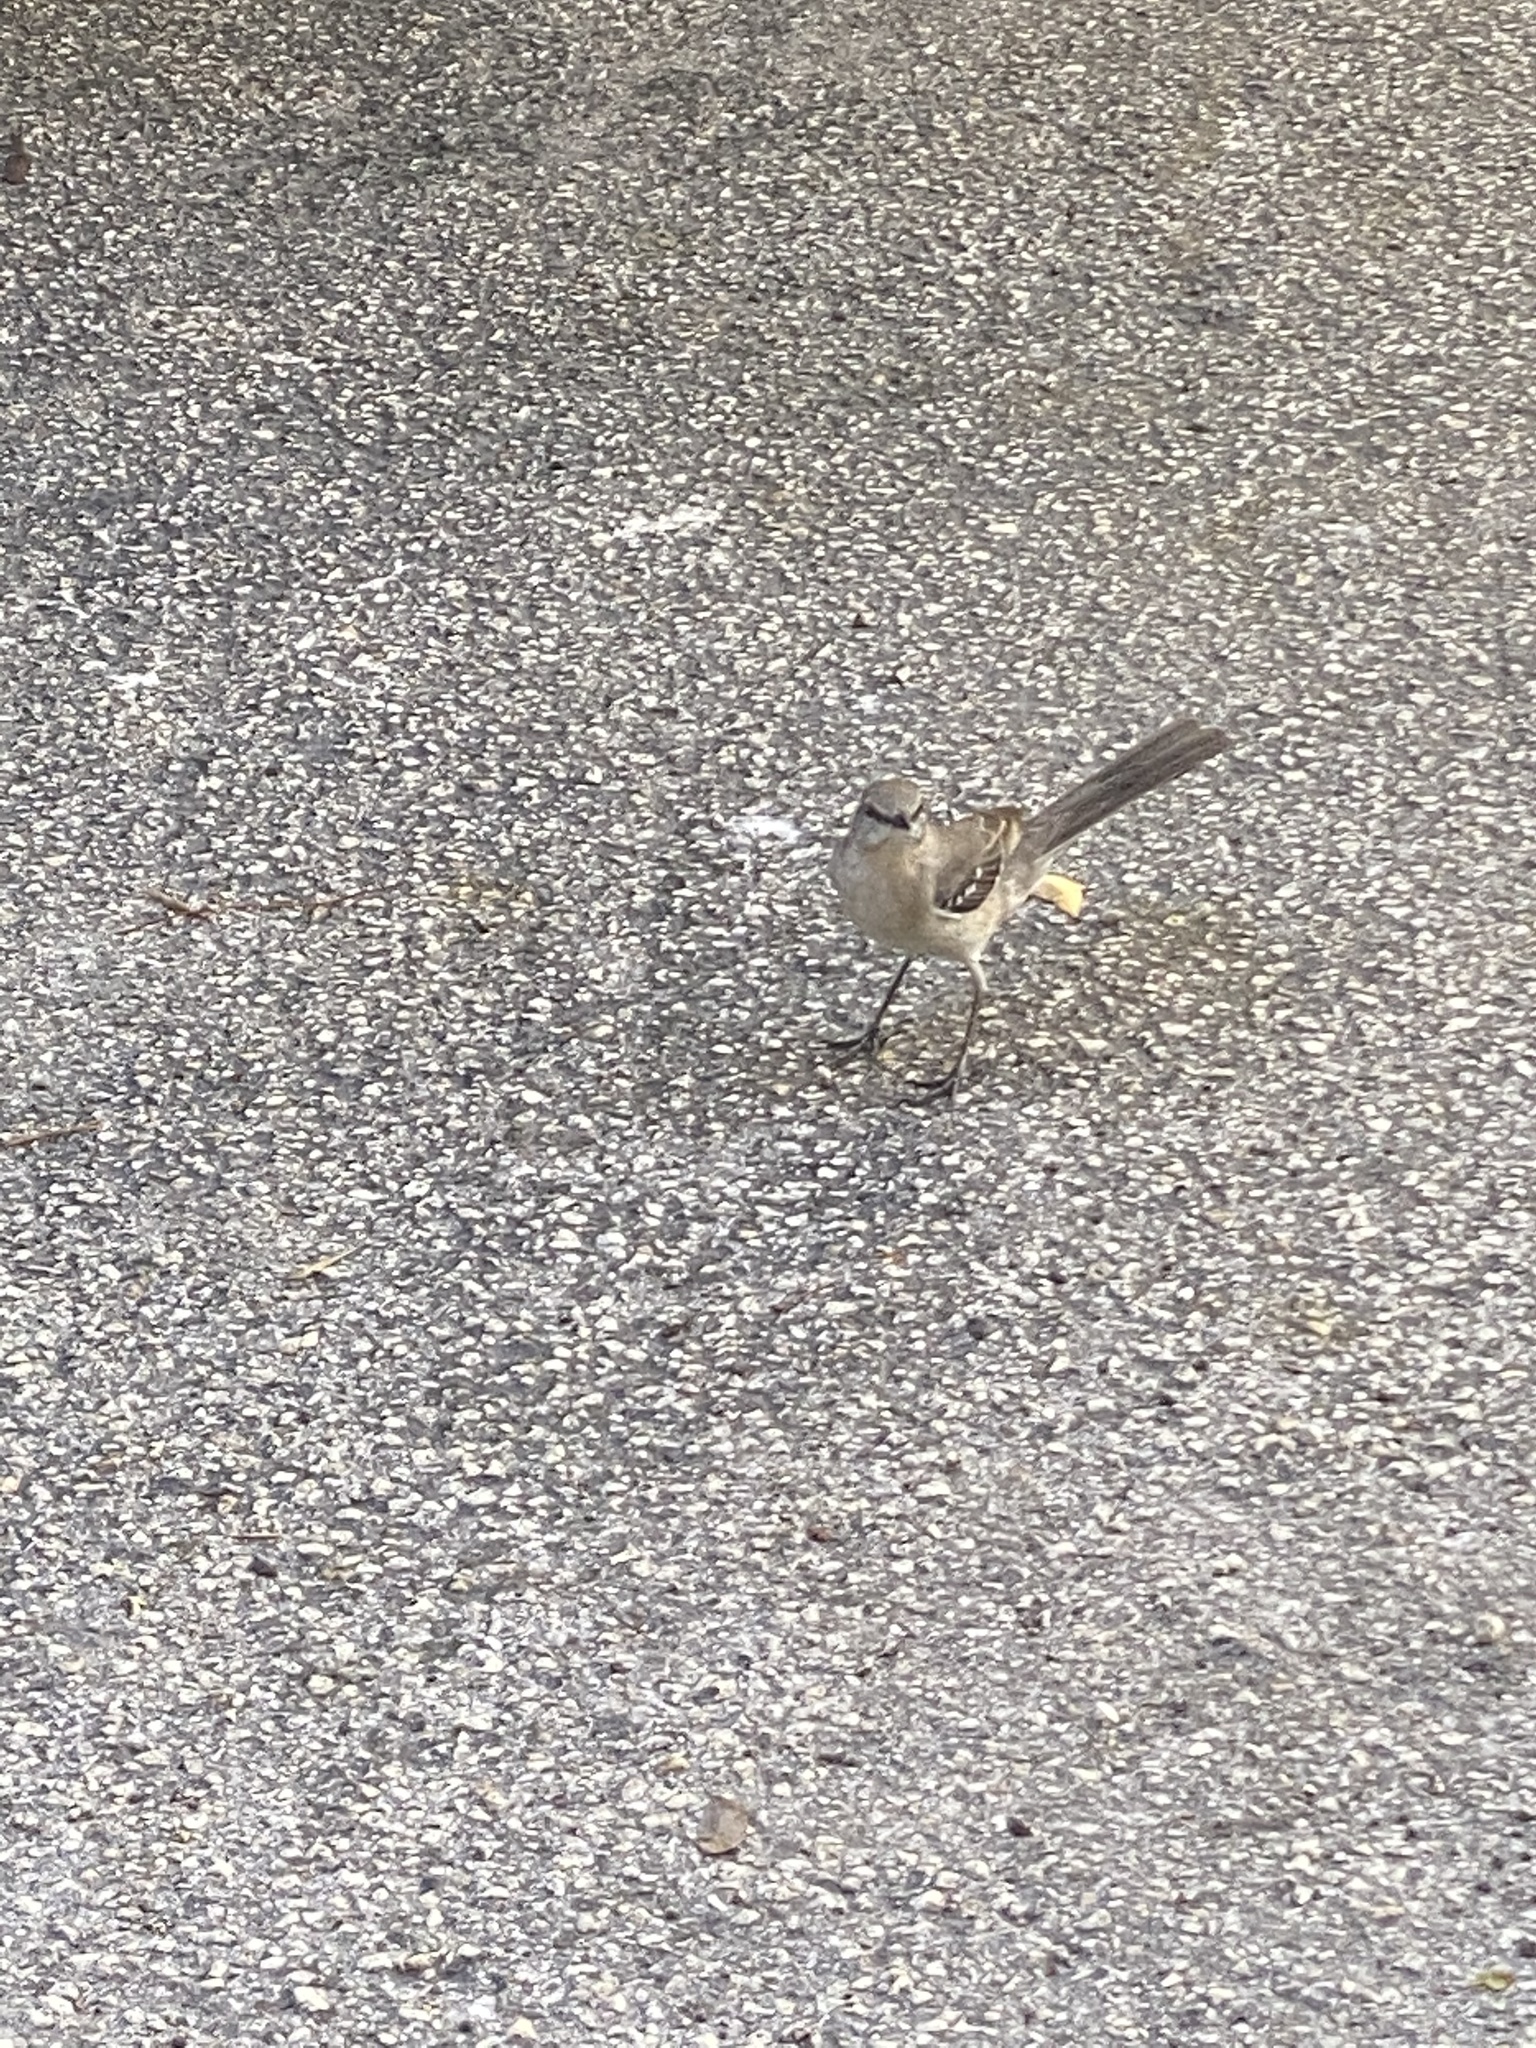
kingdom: Animalia
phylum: Chordata
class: Aves
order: Passeriformes
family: Mimidae
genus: Mimus
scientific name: Mimus polyglottos
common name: Northern mockingbird
